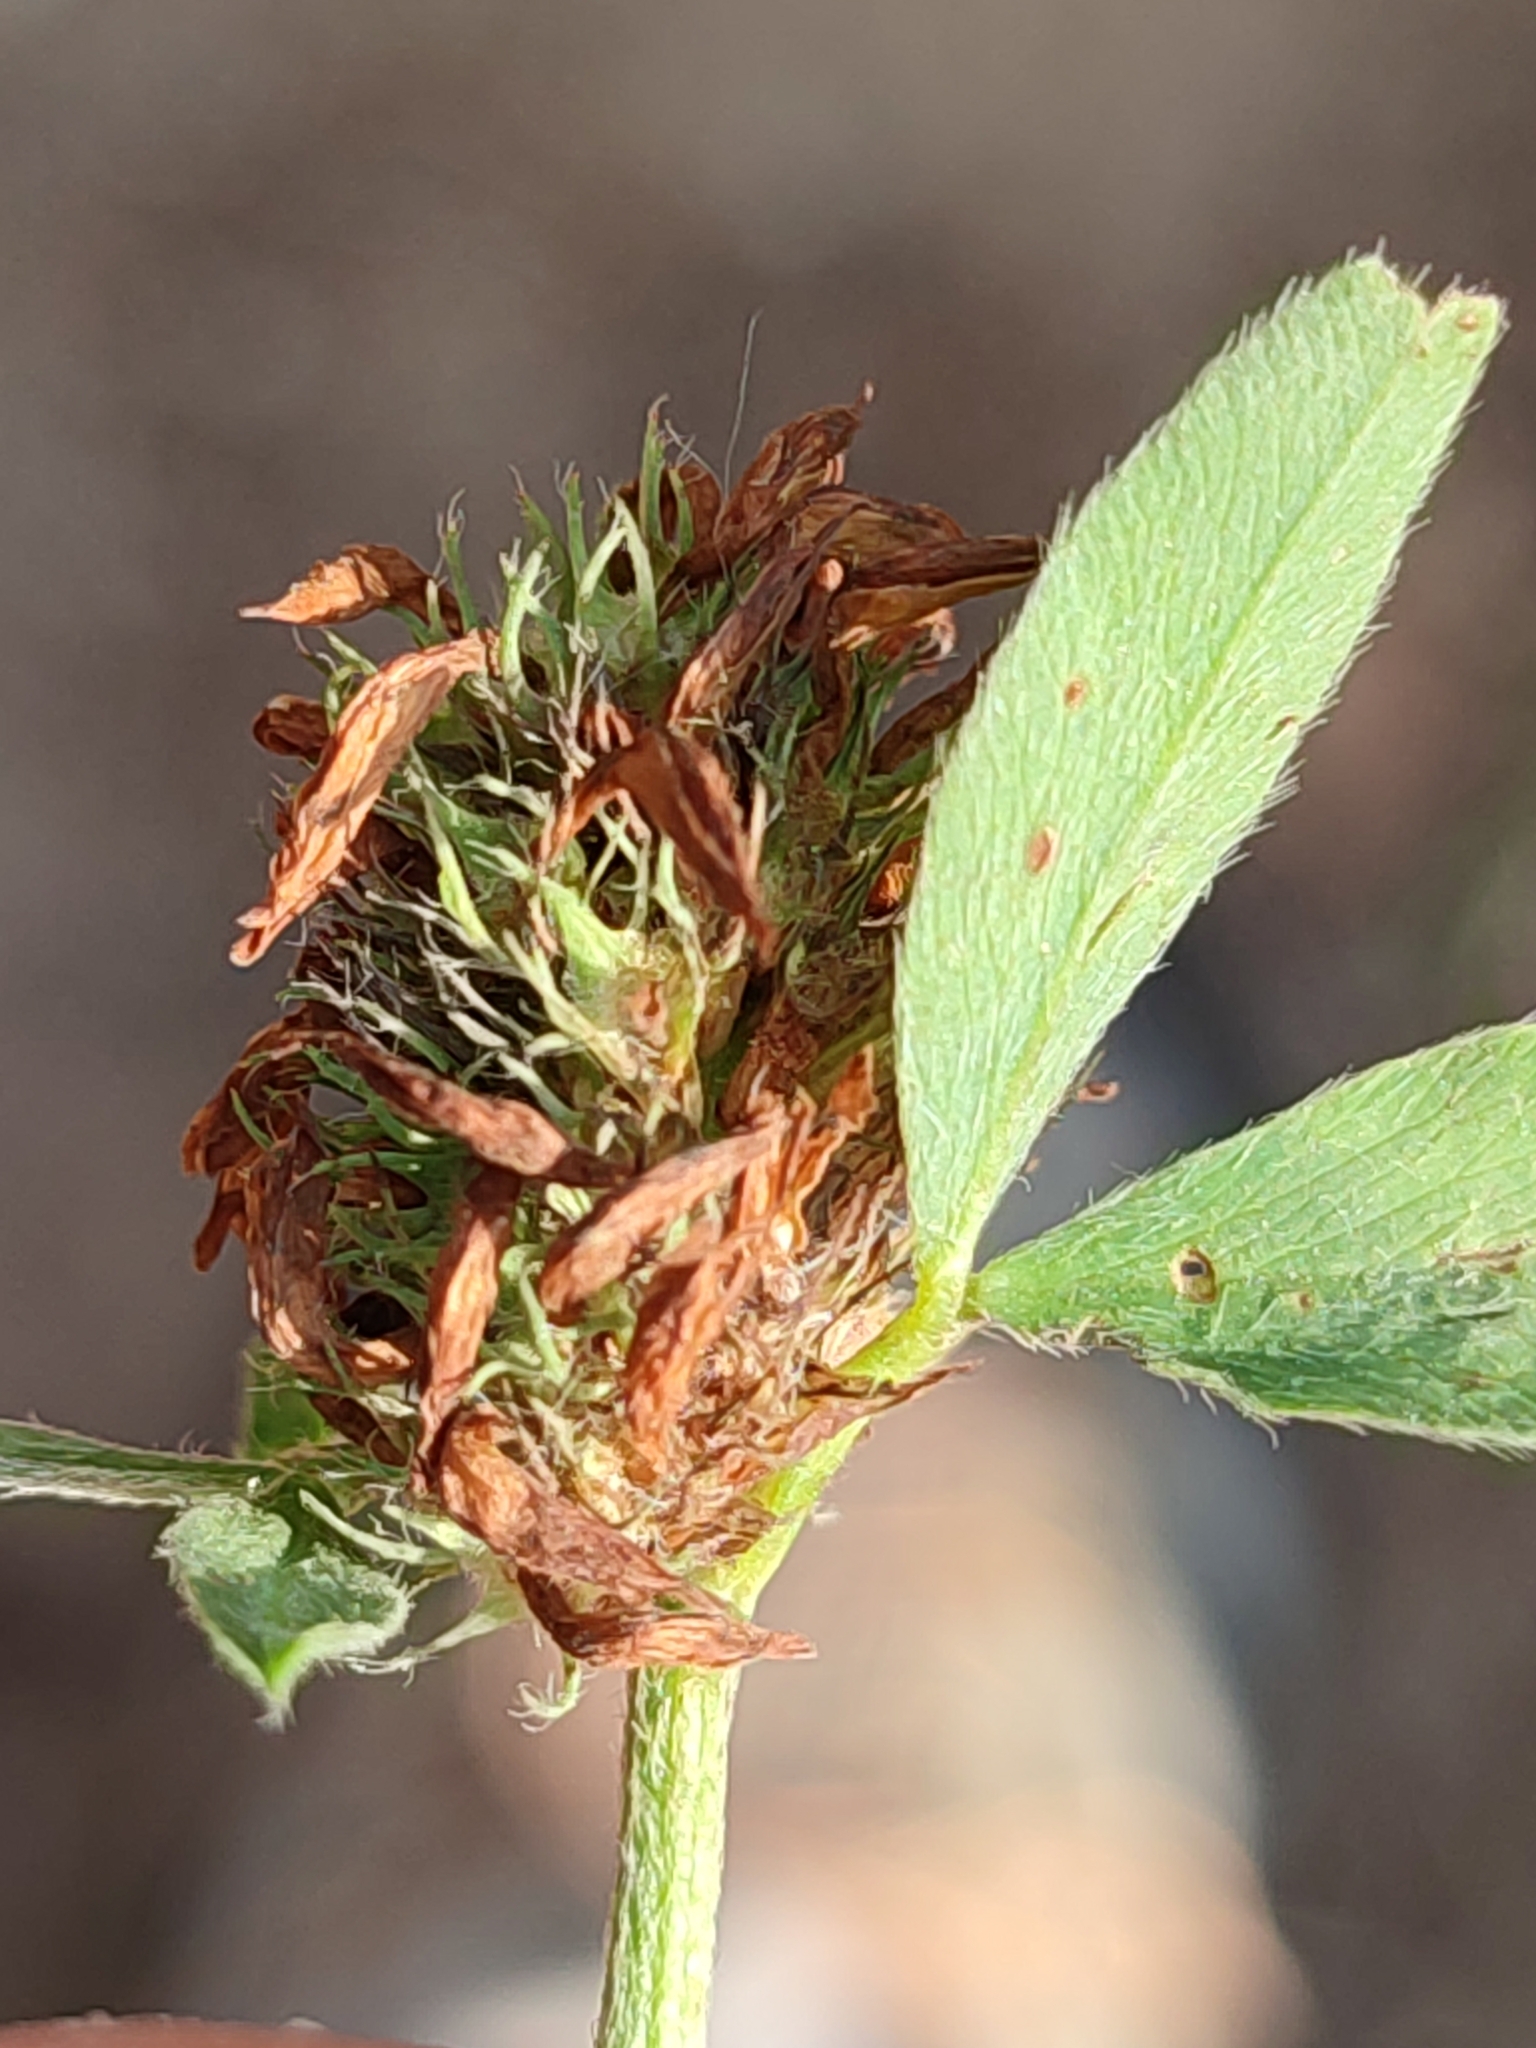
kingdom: Plantae
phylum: Tracheophyta
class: Magnoliopsida
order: Fabales
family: Fabaceae
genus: Trifolium
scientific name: Trifolium pratense
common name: Red clover
